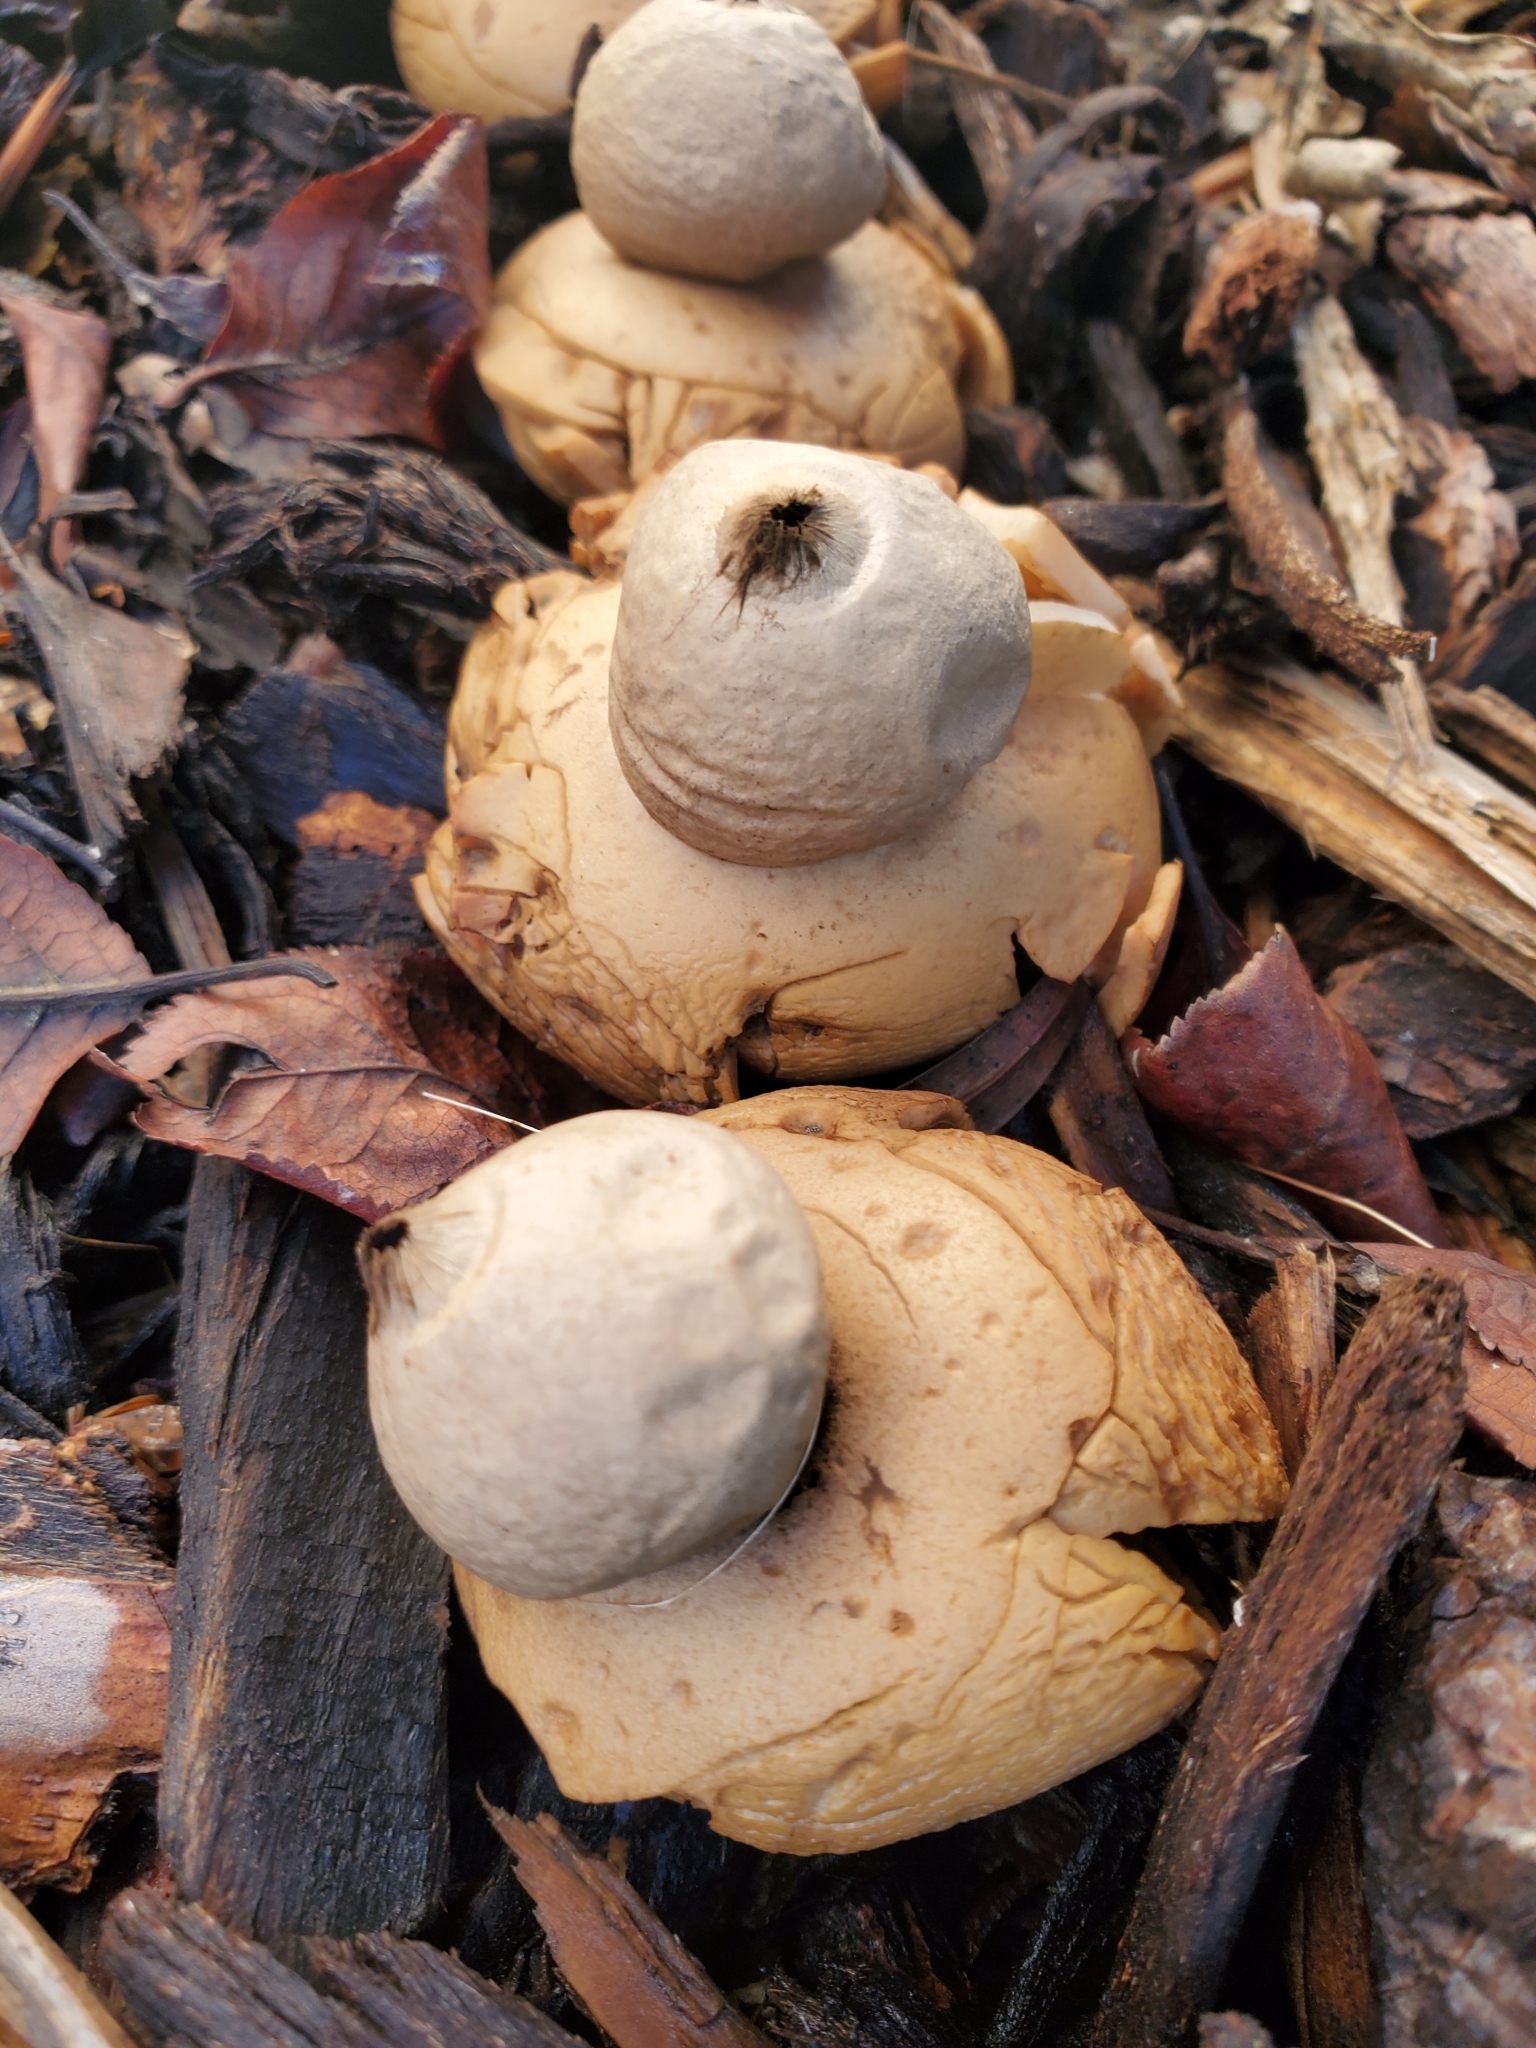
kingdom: Fungi
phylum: Basidiomycota
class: Agaricomycetes
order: Geastrales
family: Geastraceae
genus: Geastrum
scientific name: Geastrum saccatum
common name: Rounded earthstar
